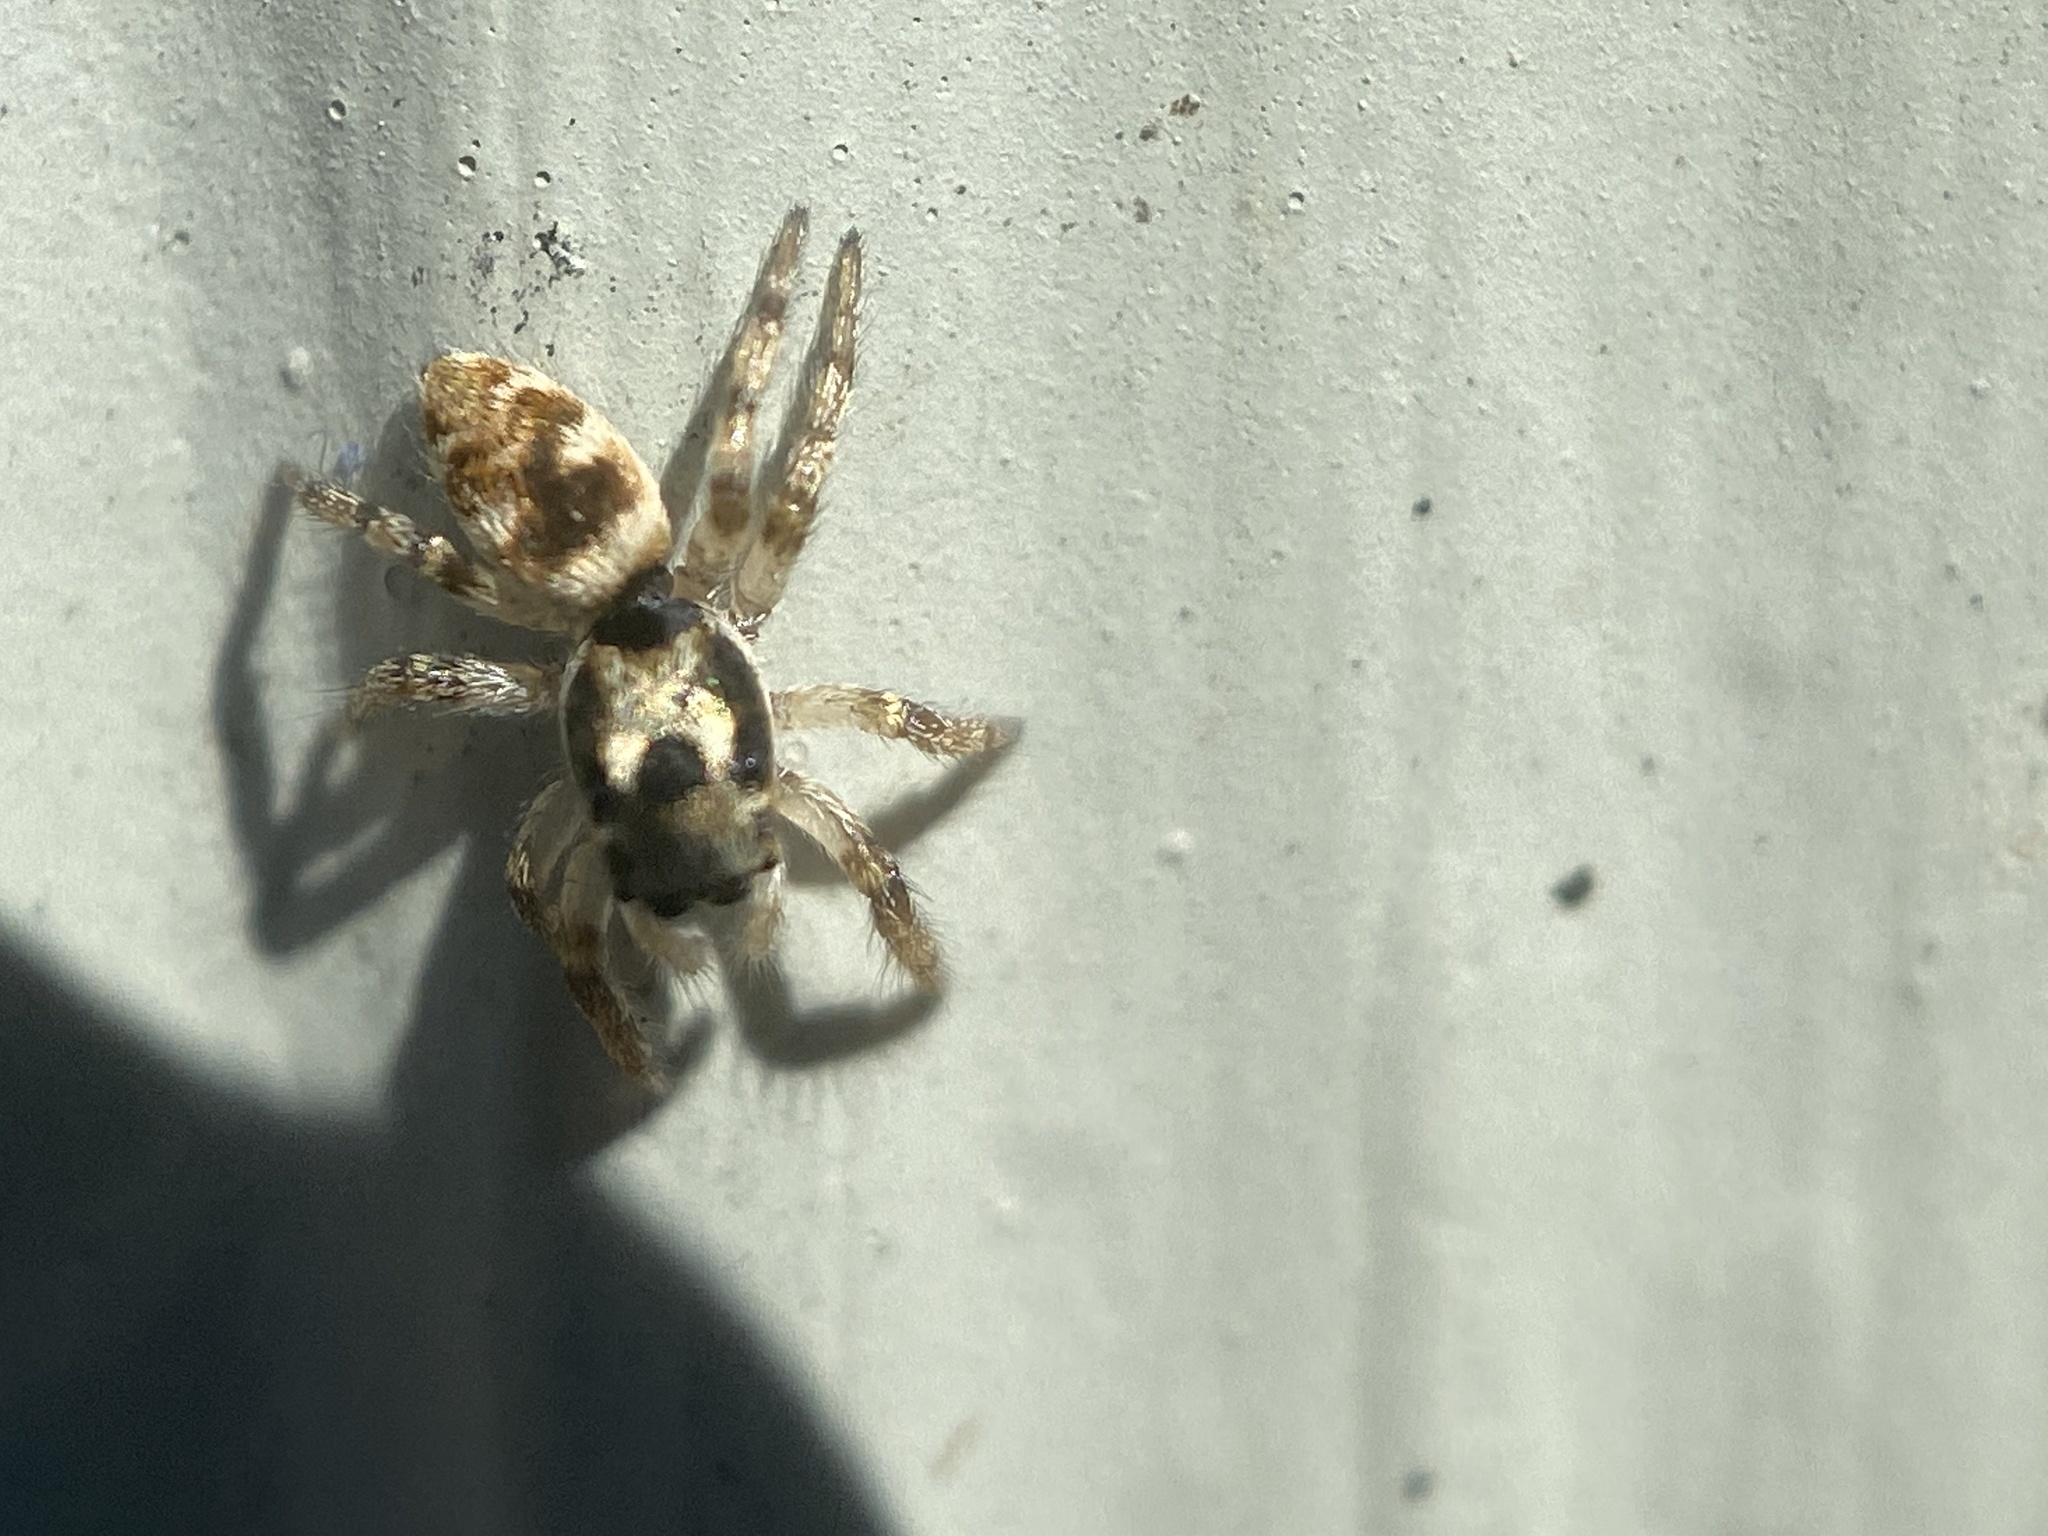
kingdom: Animalia
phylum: Arthropoda
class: Arachnida
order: Araneae
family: Salticidae
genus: Salticus
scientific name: Salticus scenicus
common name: Zebra jumper
